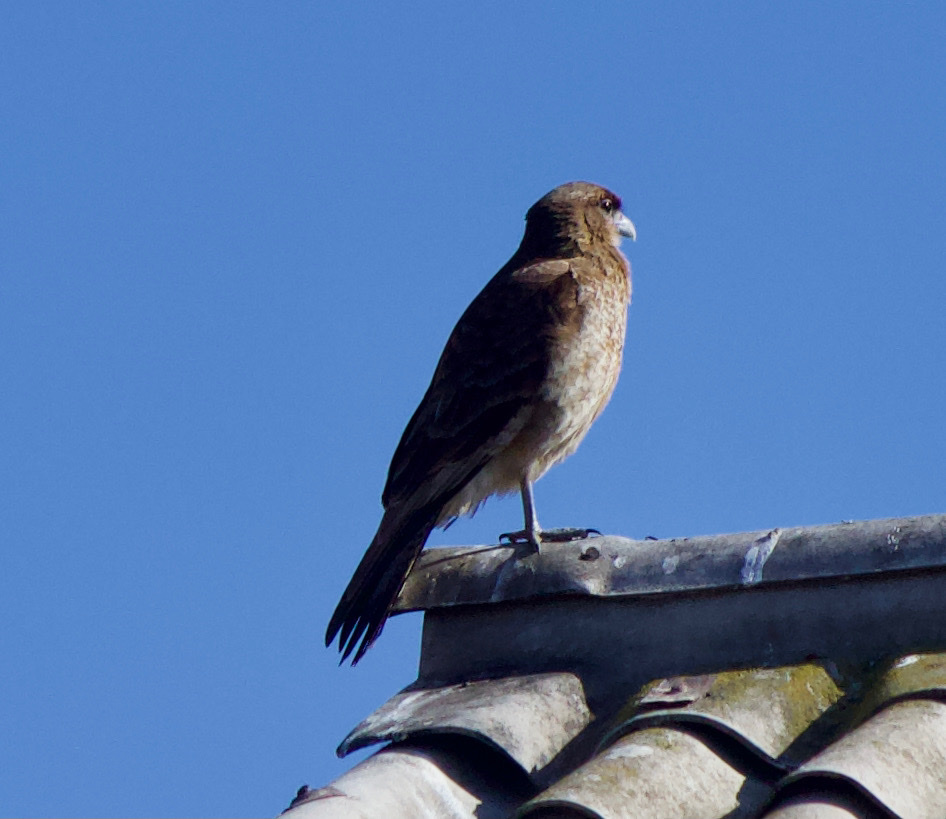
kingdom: Animalia
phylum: Chordata
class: Aves
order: Falconiformes
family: Falconidae
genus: Daptrius
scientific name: Daptrius
